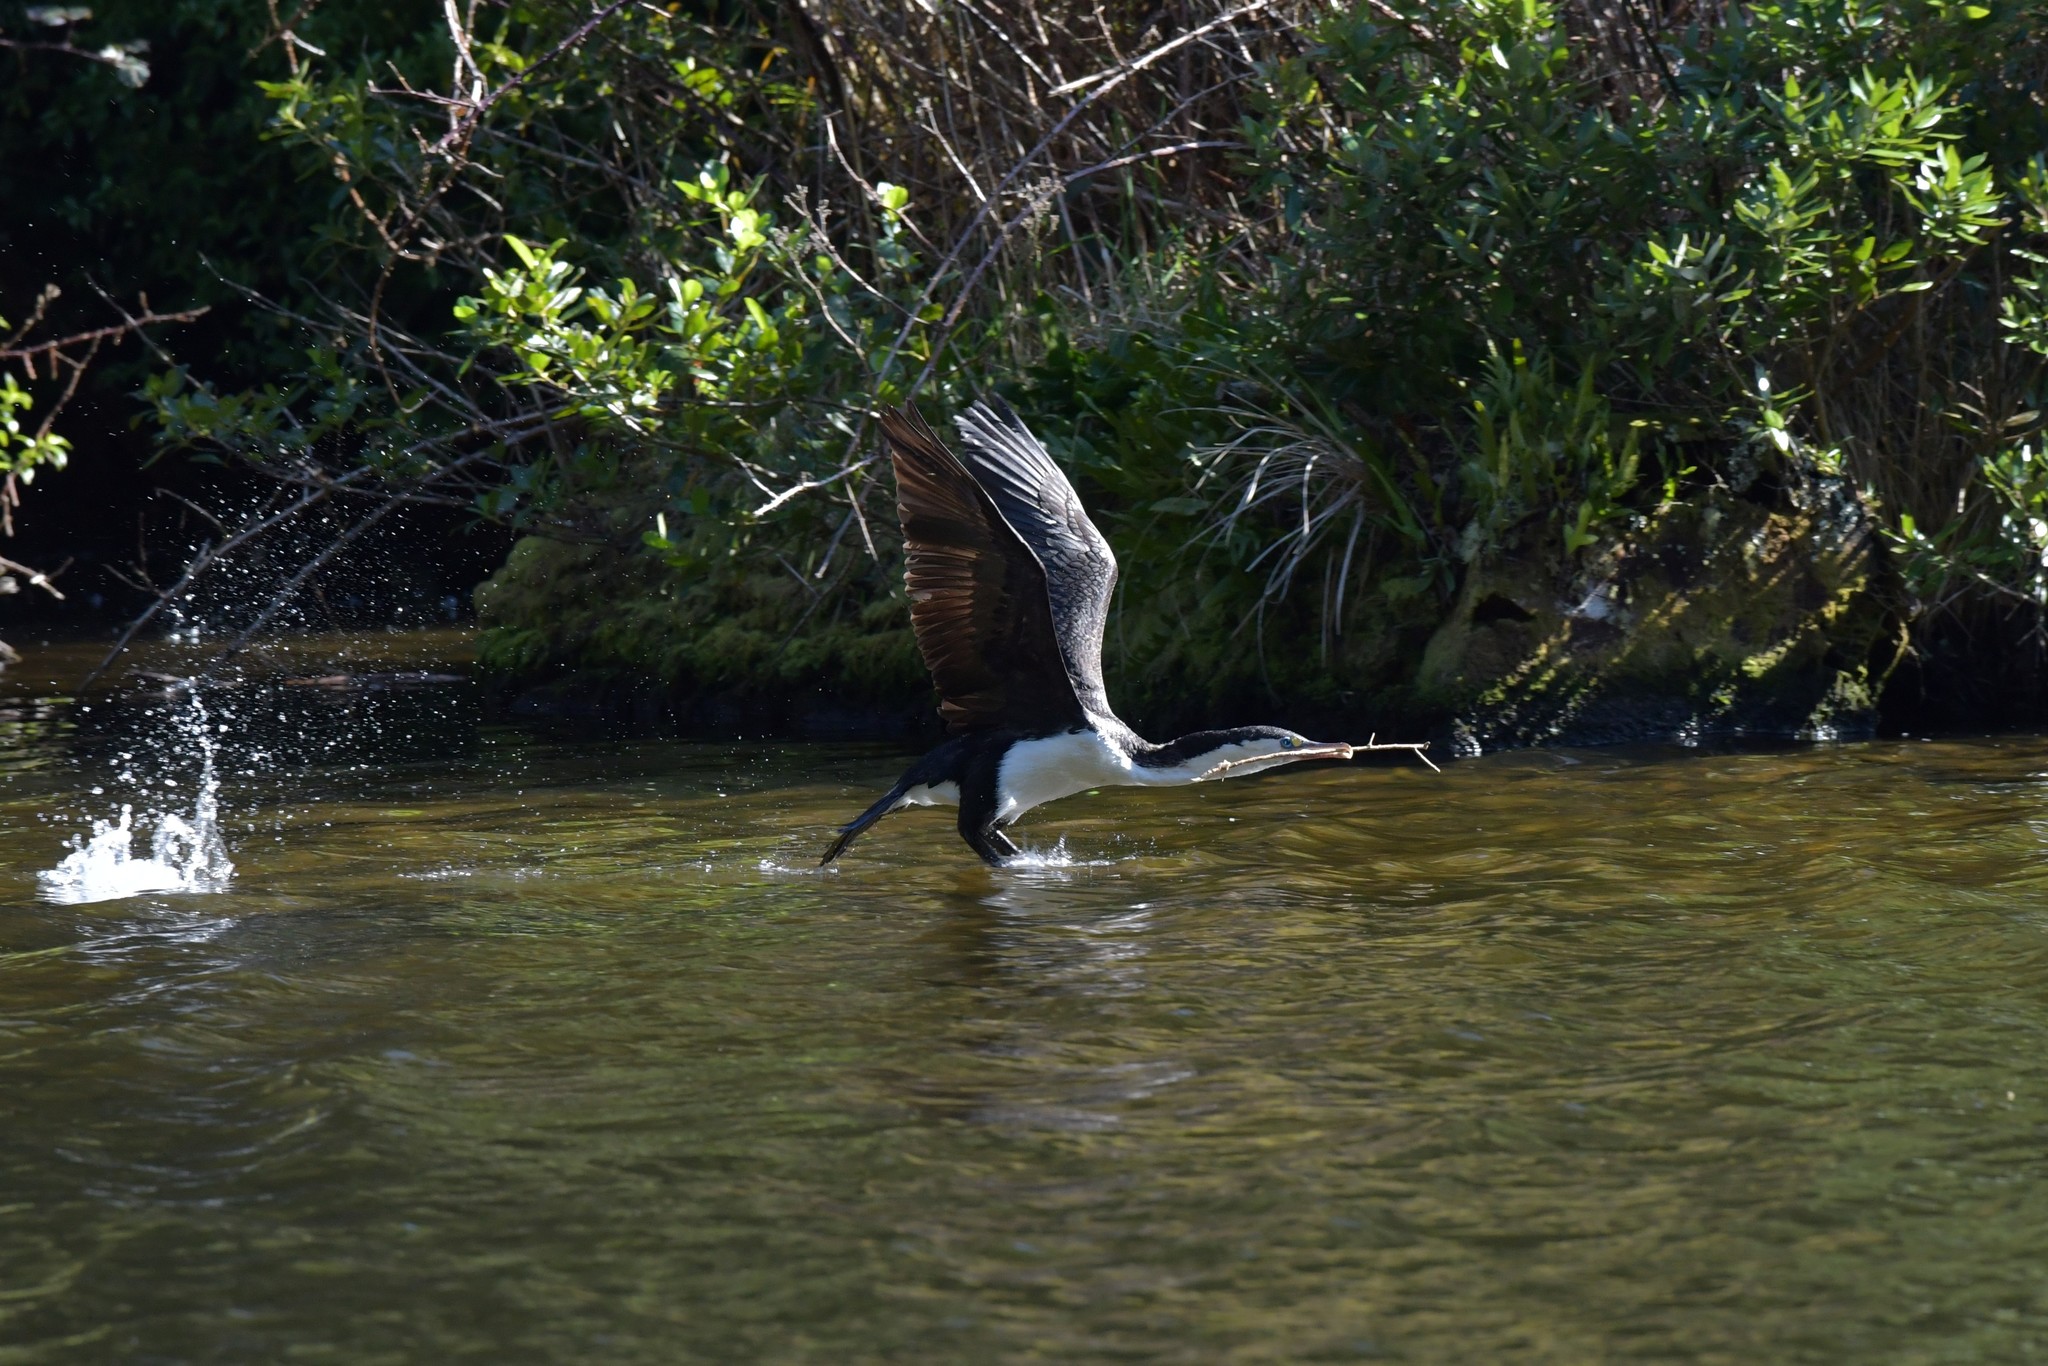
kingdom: Animalia
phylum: Chordata
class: Aves
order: Suliformes
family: Phalacrocoracidae
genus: Phalacrocorax
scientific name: Phalacrocorax varius
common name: Pied cormorant
